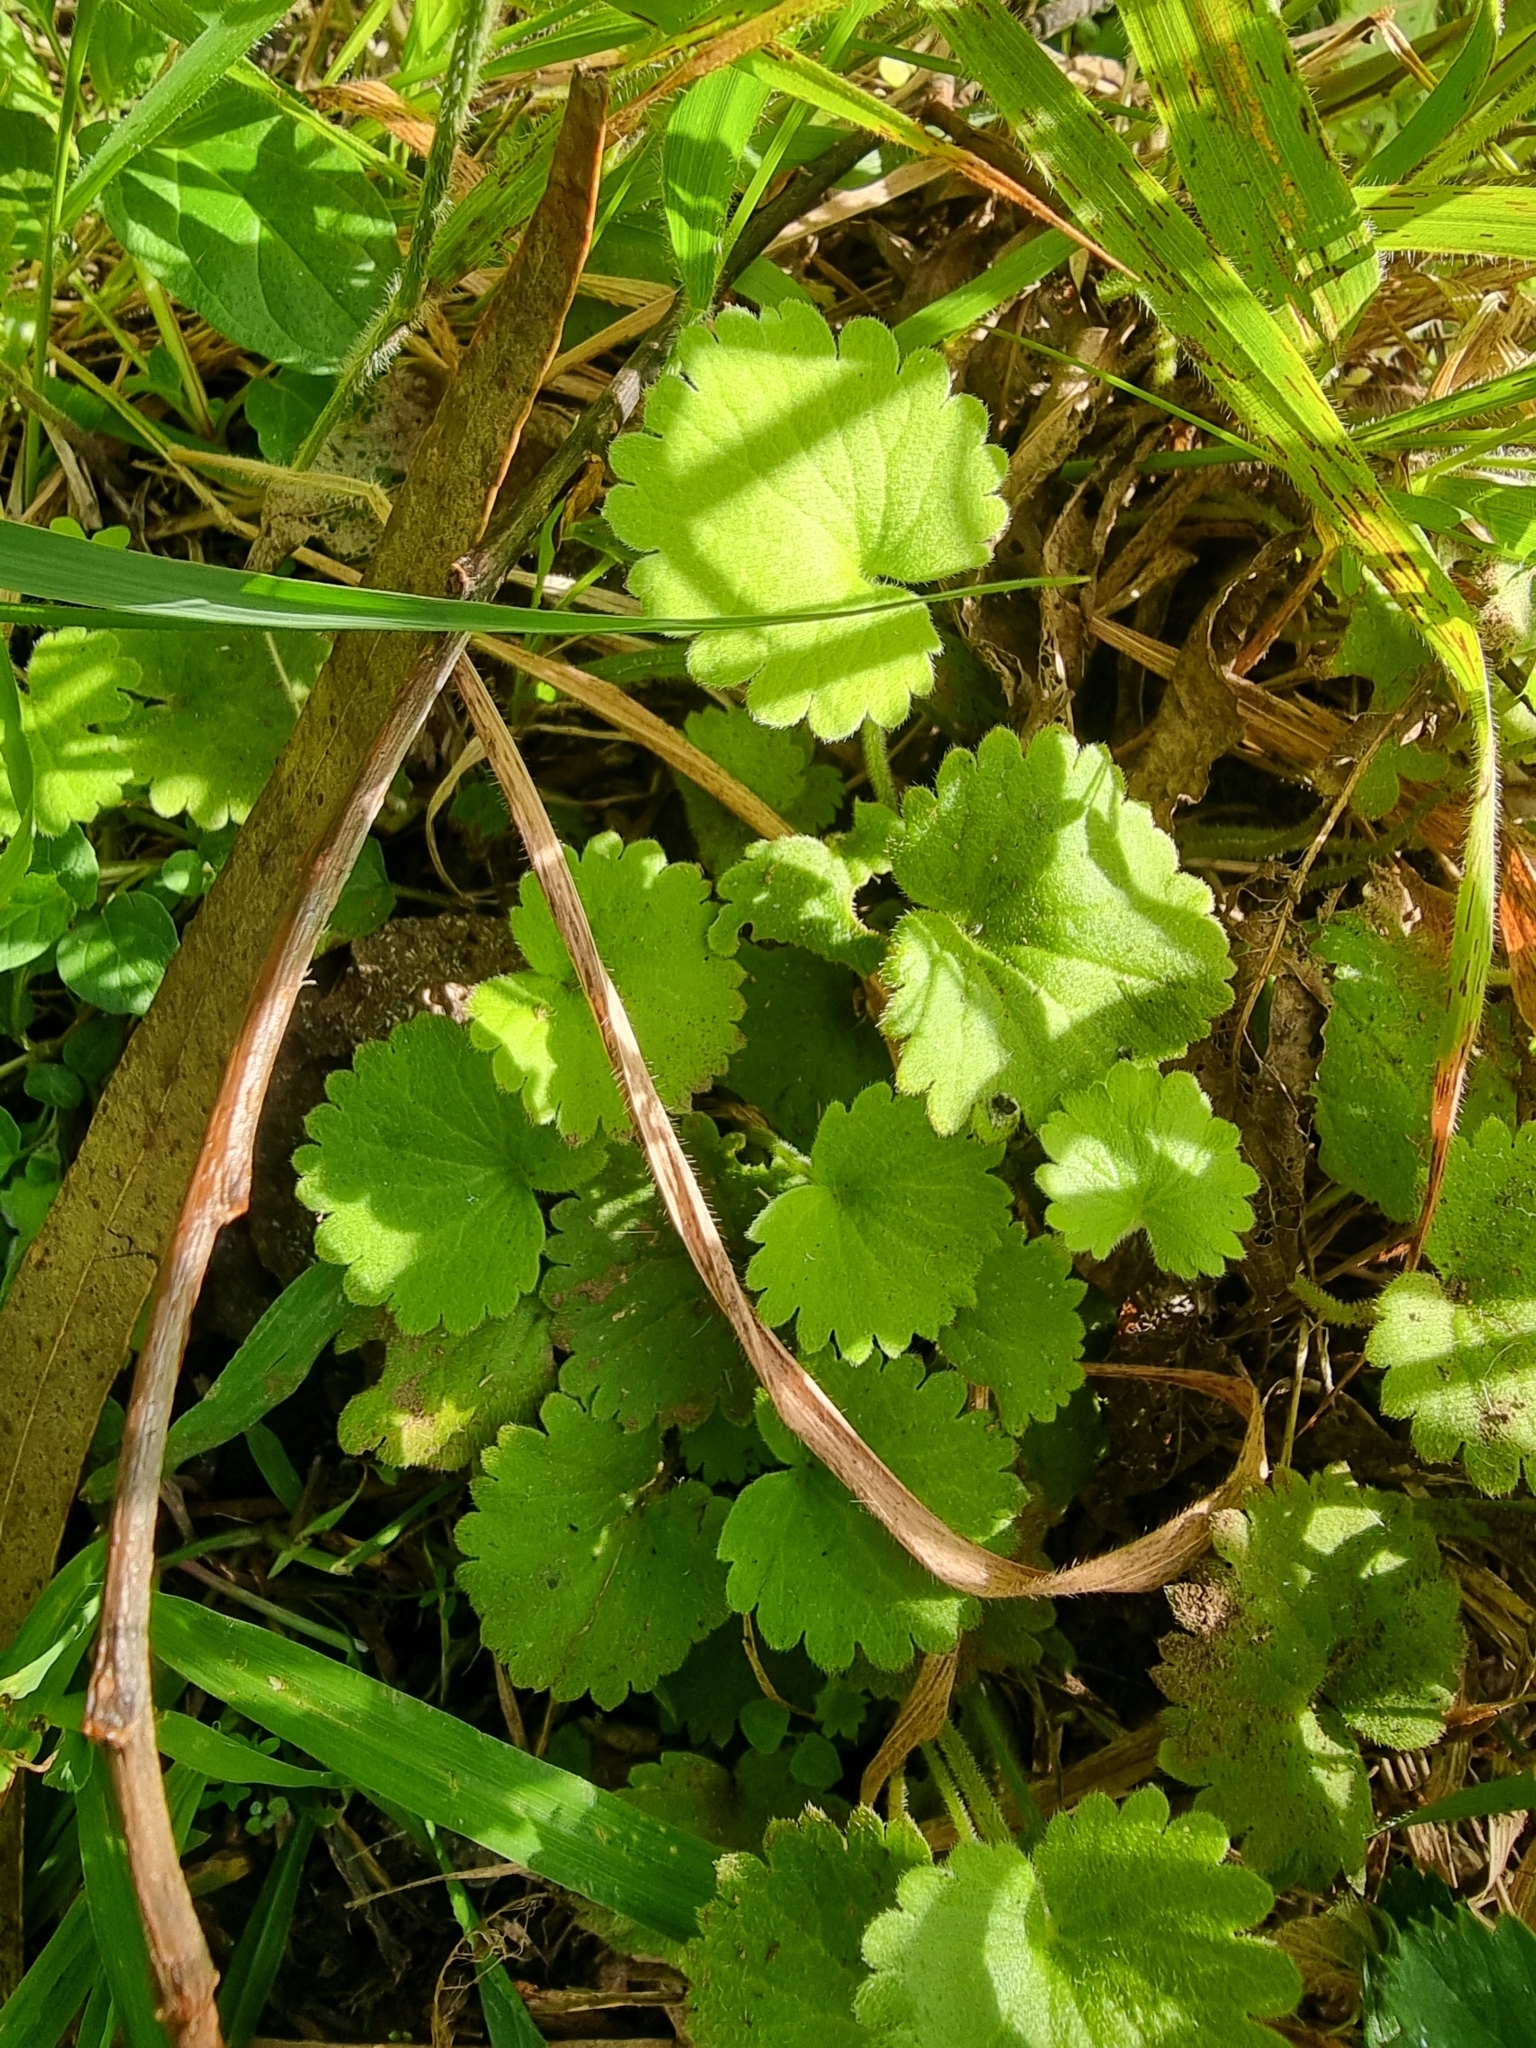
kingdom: Plantae
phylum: Tracheophyta
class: Magnoliopsida
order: Lamiales
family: Plantaginaceae
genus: Sibthorpia
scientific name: Sibthorpia peregrina
